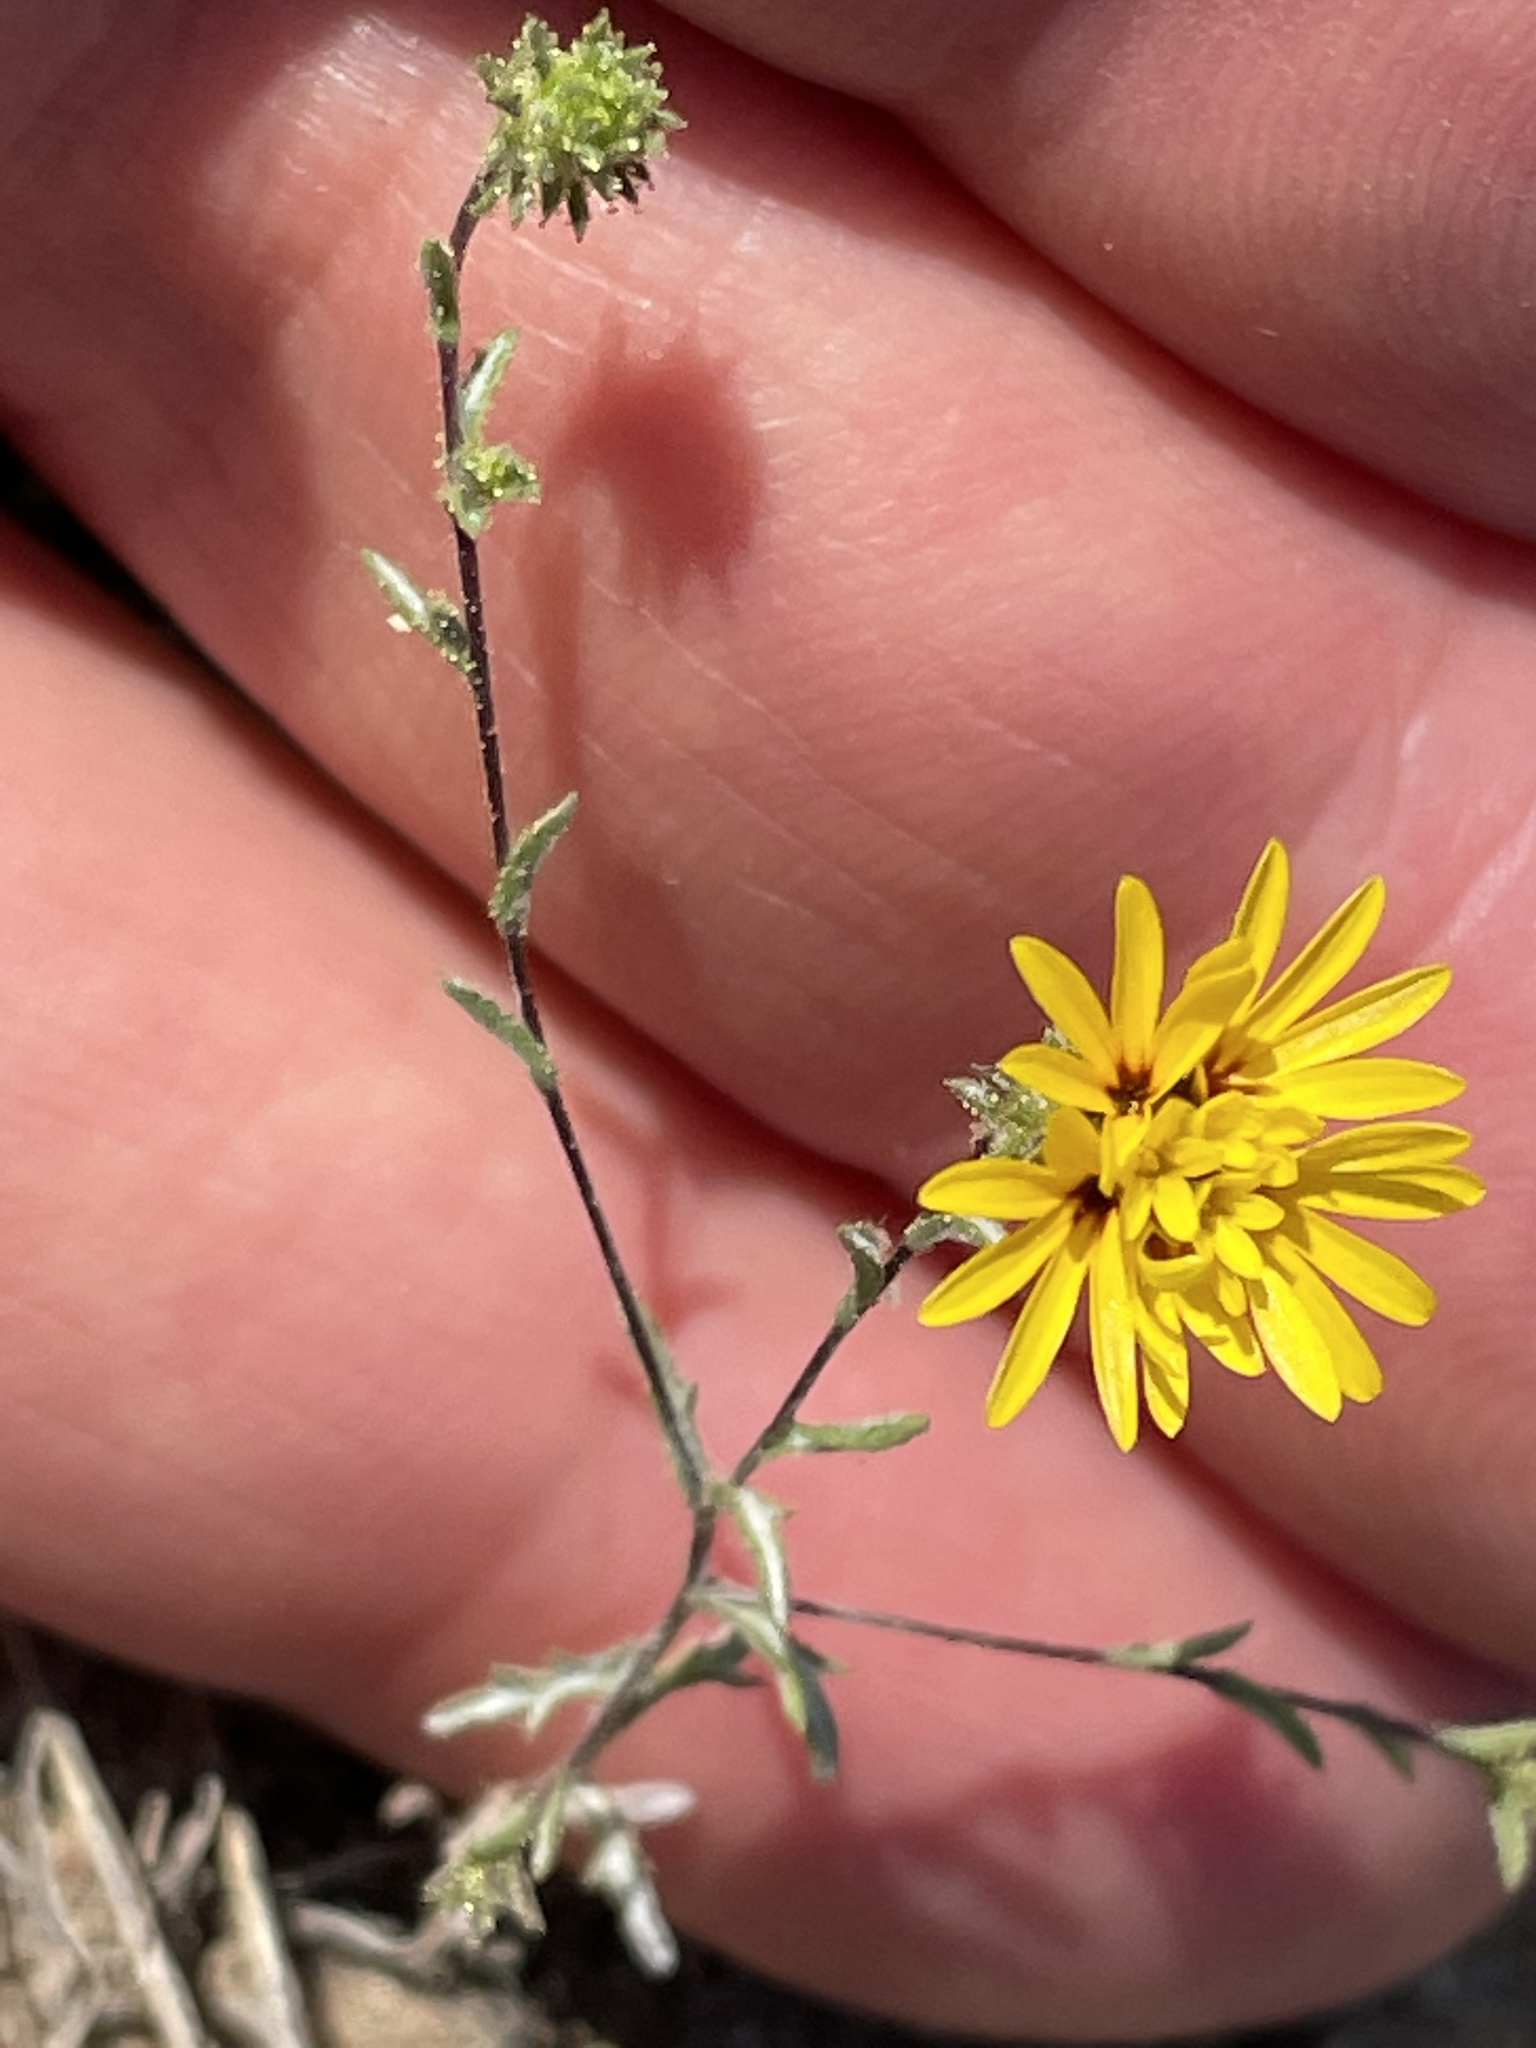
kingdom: Plantae
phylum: Tracheophyta
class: Magnoliopsida
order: Asterales
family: Asteraceae
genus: Lessingia
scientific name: Lessingia pectinata
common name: Valley lessingia
